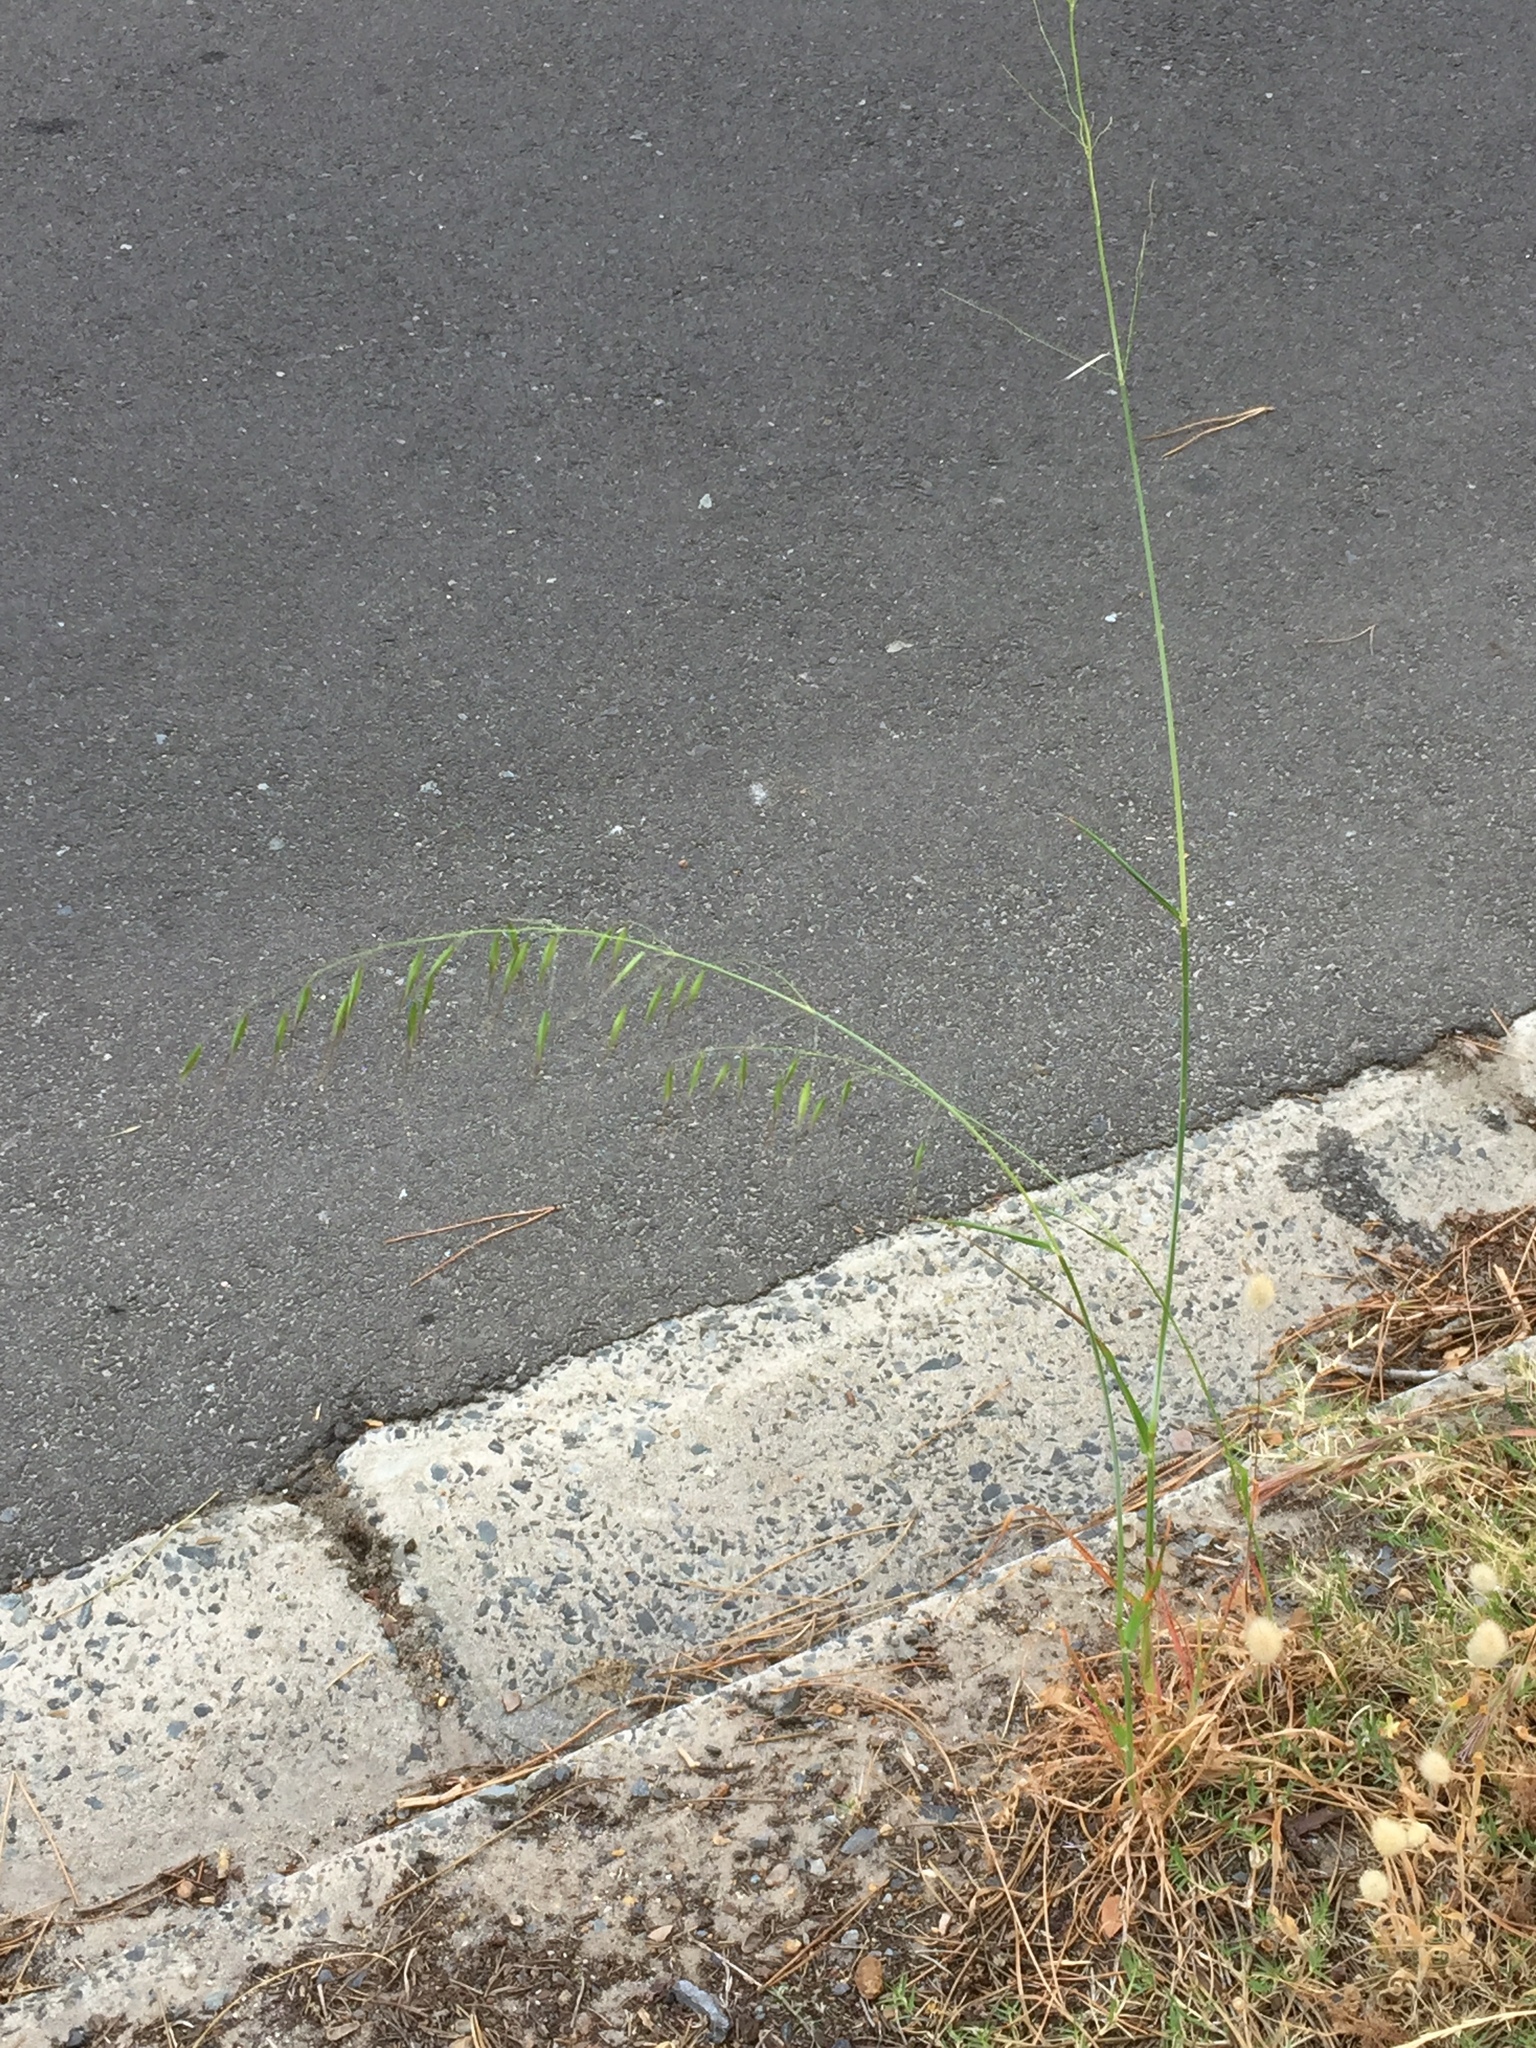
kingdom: Plantae
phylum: Tracheophyta
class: Liliopsida
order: Poales
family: Poaceae
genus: Avena
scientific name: Avena fatua
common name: Wild oat
